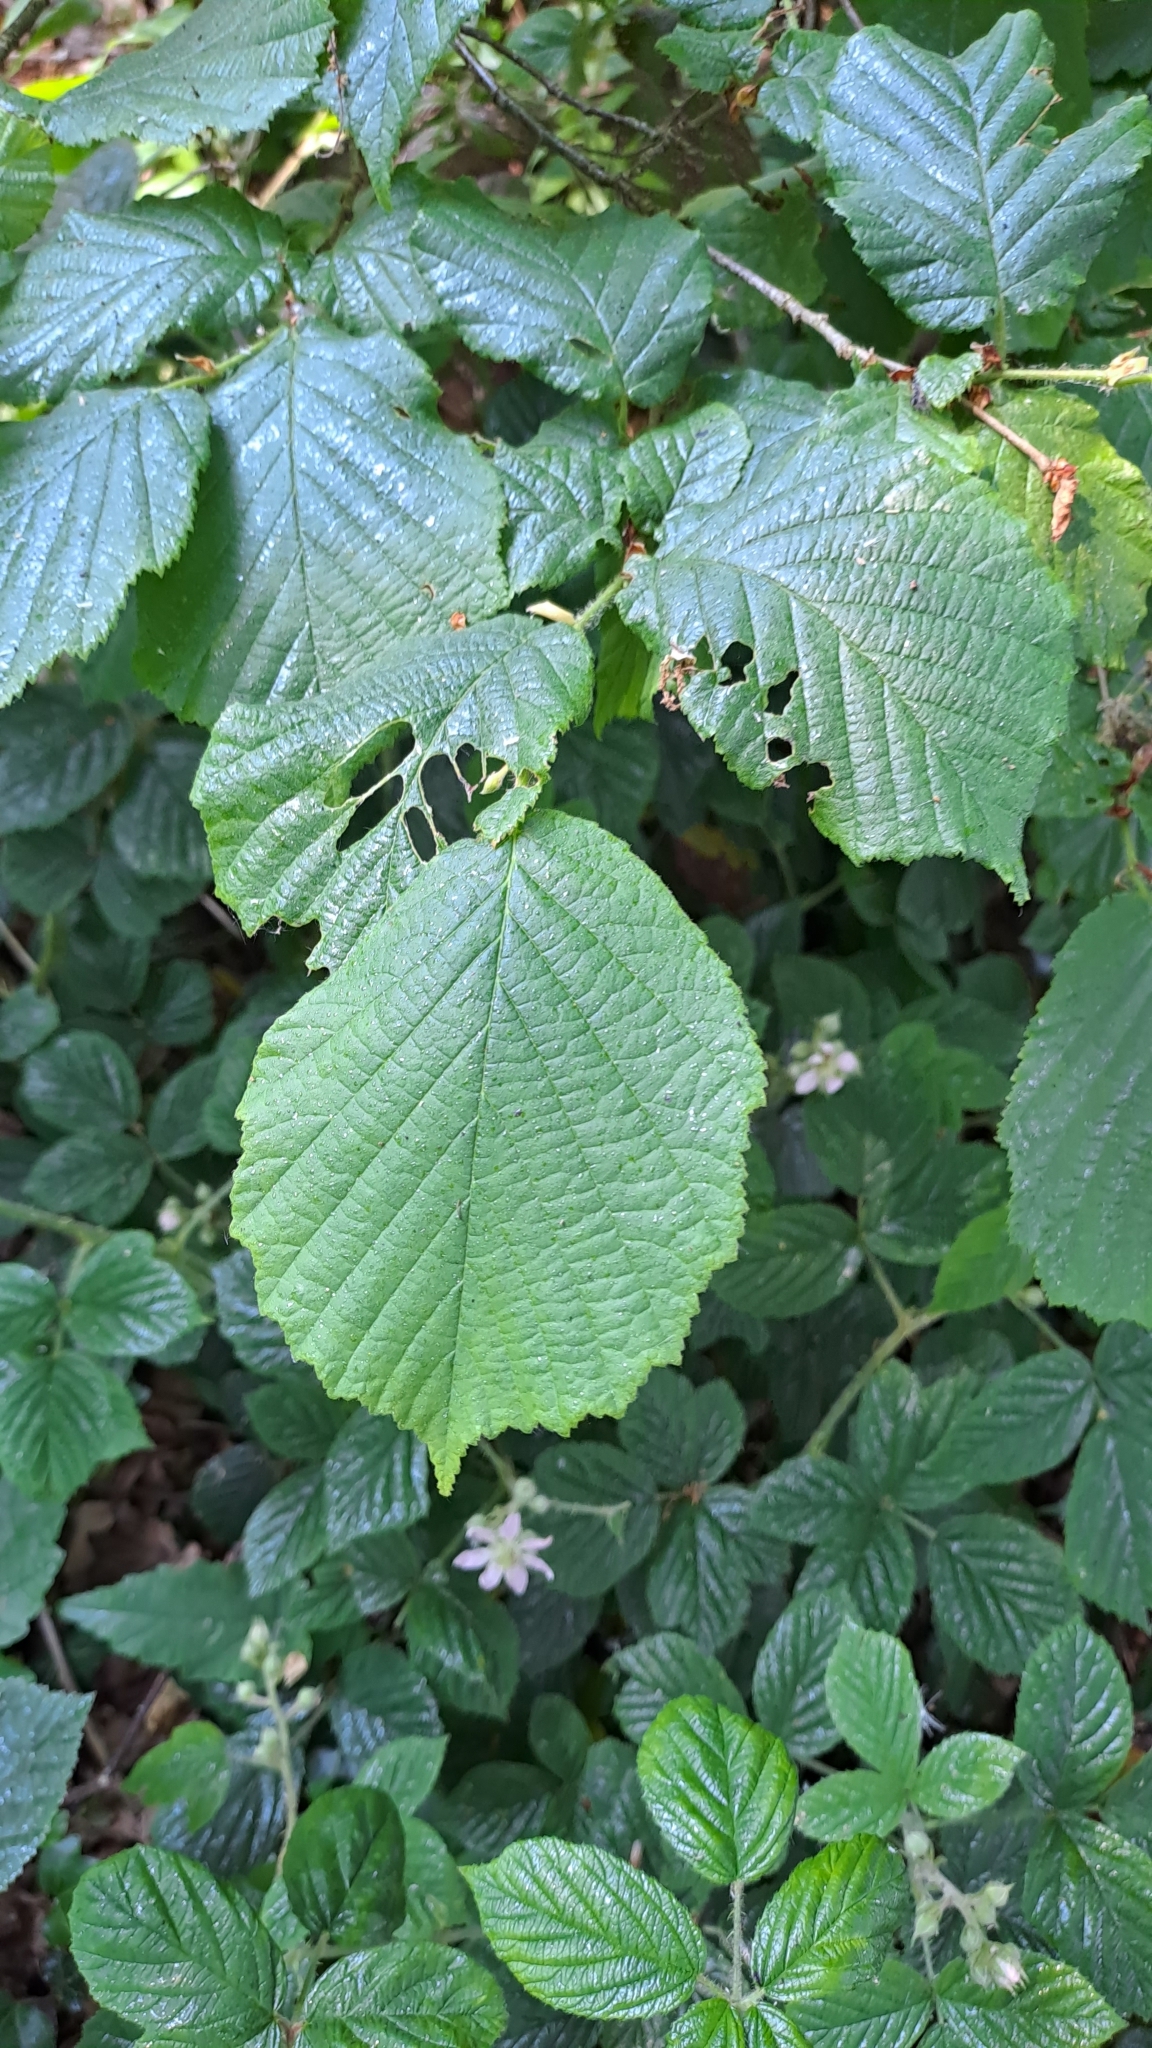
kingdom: Plantae
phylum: Tracheophyta
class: Magnoliopsida
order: Fagales
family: Betulaceae
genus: Corylus
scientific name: Corylus avellana
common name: European hazel
